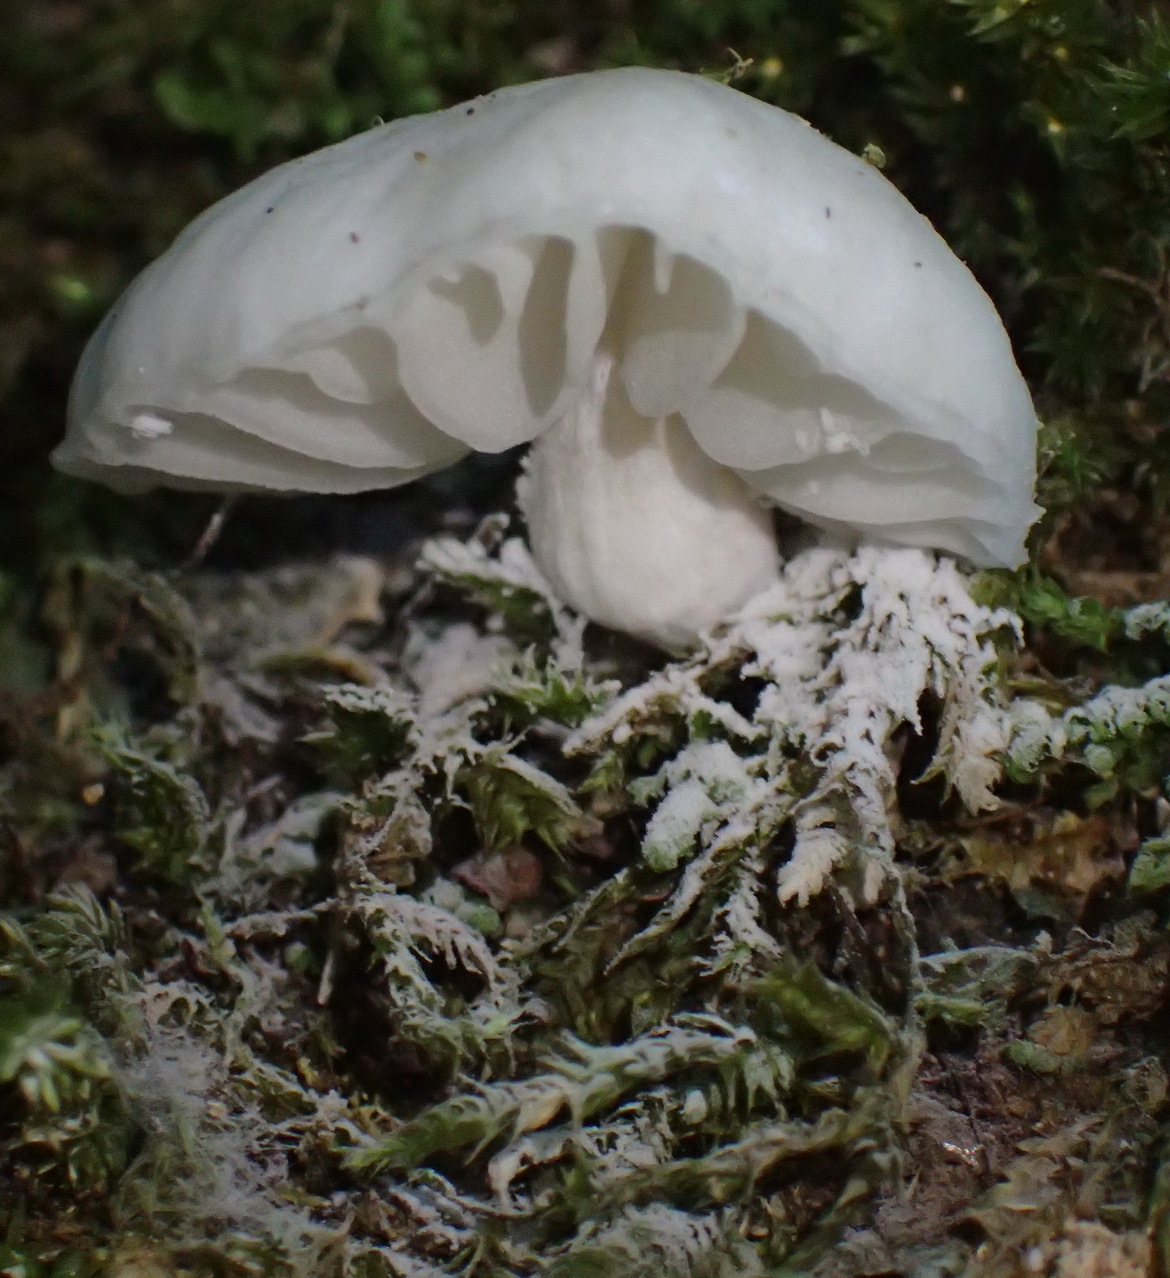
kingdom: Fungi
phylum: Basidiomycota
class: Agaricomycetes
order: Agaricales
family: Marasmiaceae
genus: Campanella
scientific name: Campanella capensis
